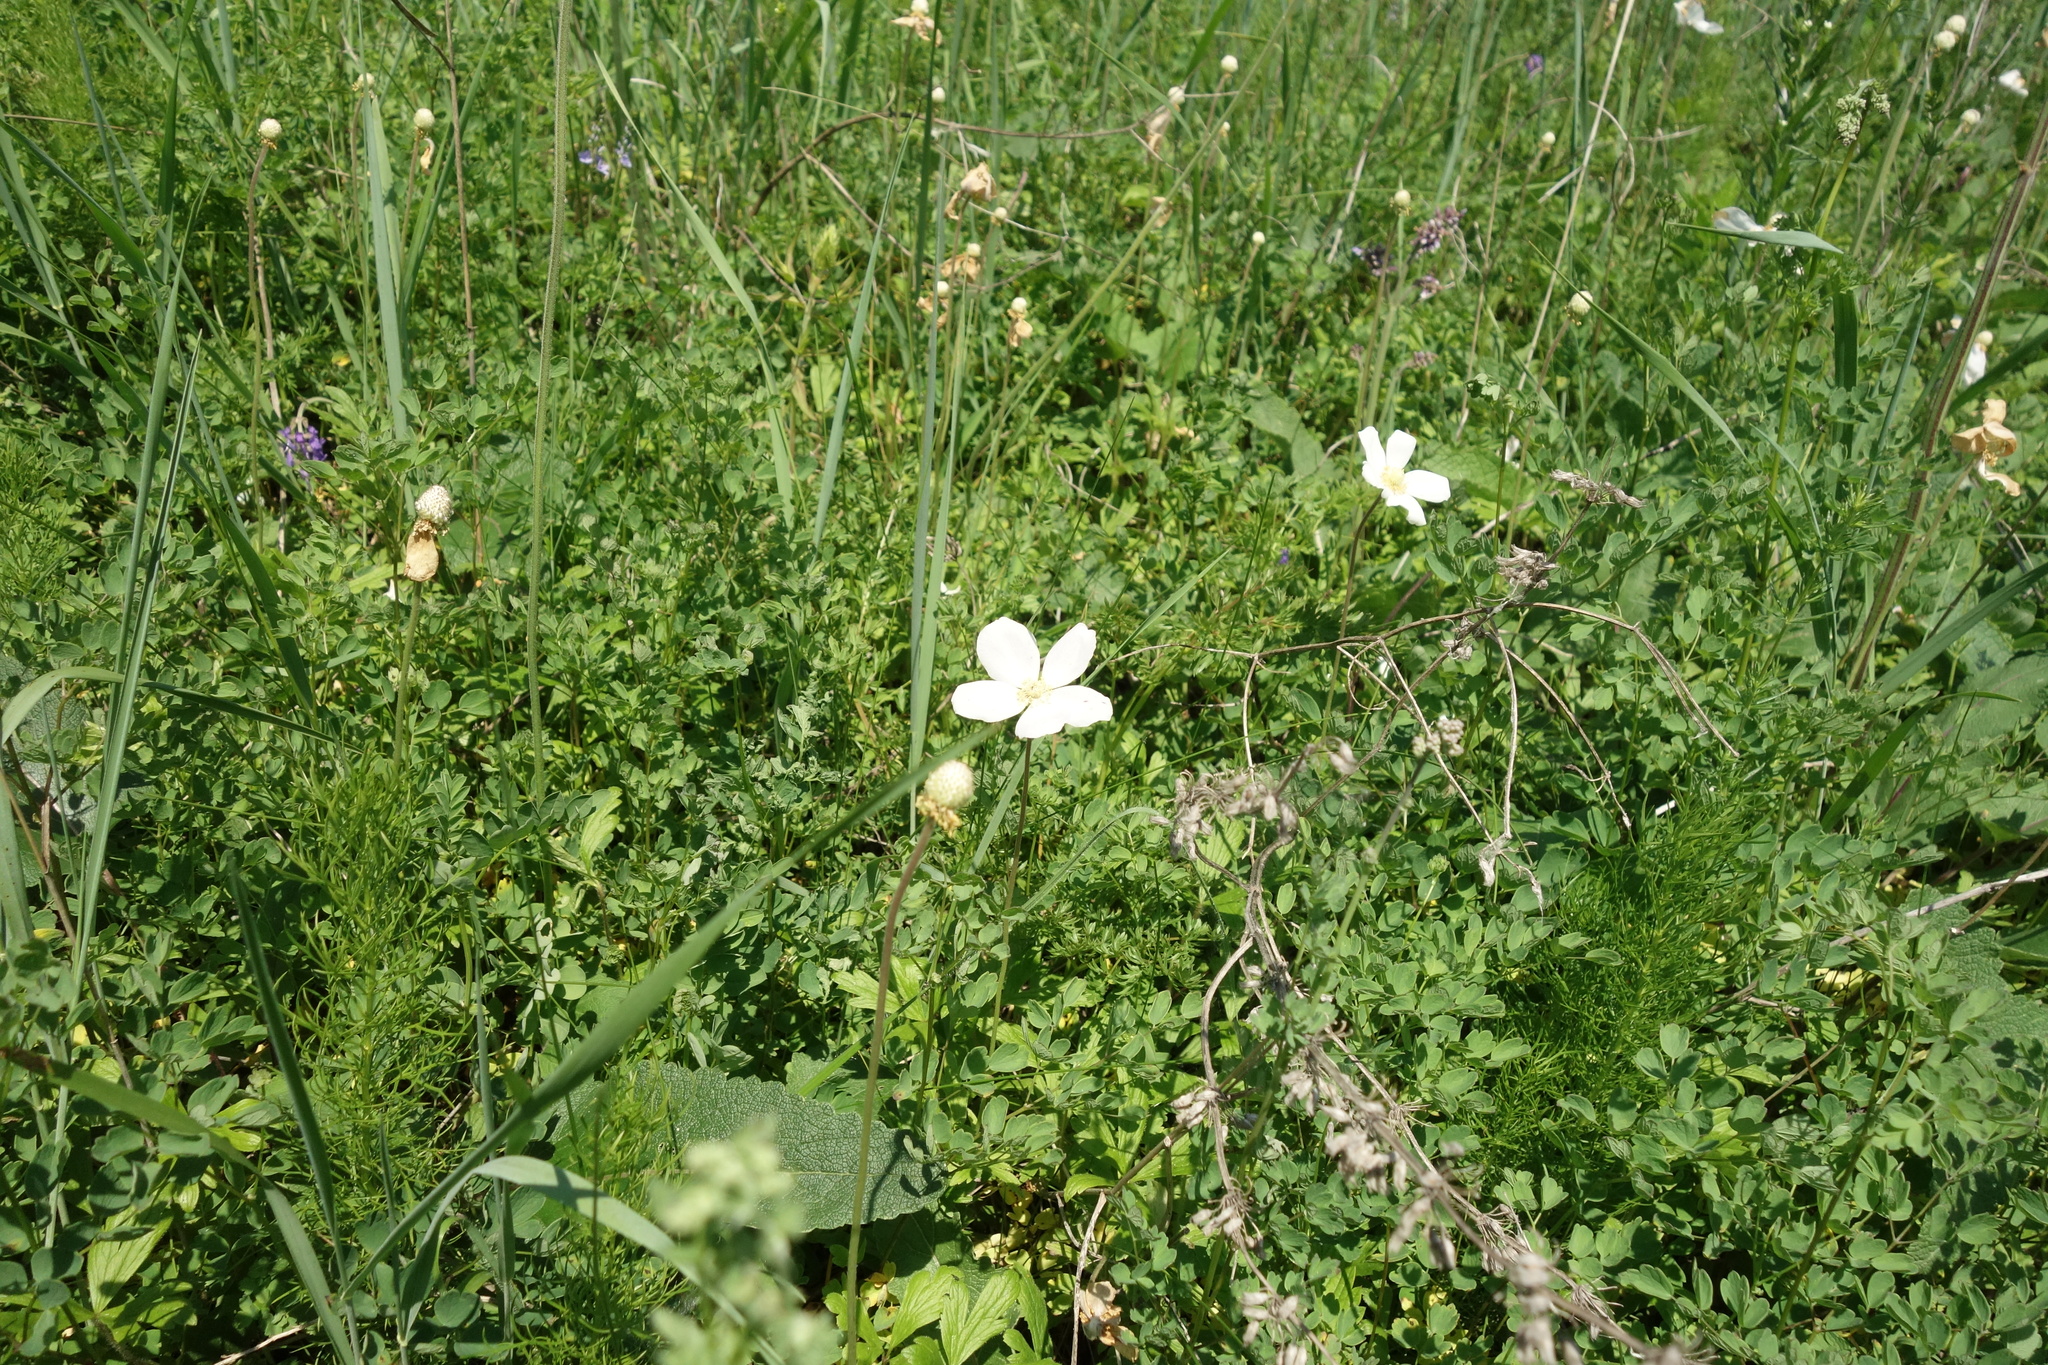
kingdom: Plantae
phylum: Tracheophyta
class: Magnoliopsida
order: Ranunculales
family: Ranunculaceae
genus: Anemone
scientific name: Anemone sylvestris
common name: Snowdrop anemone
